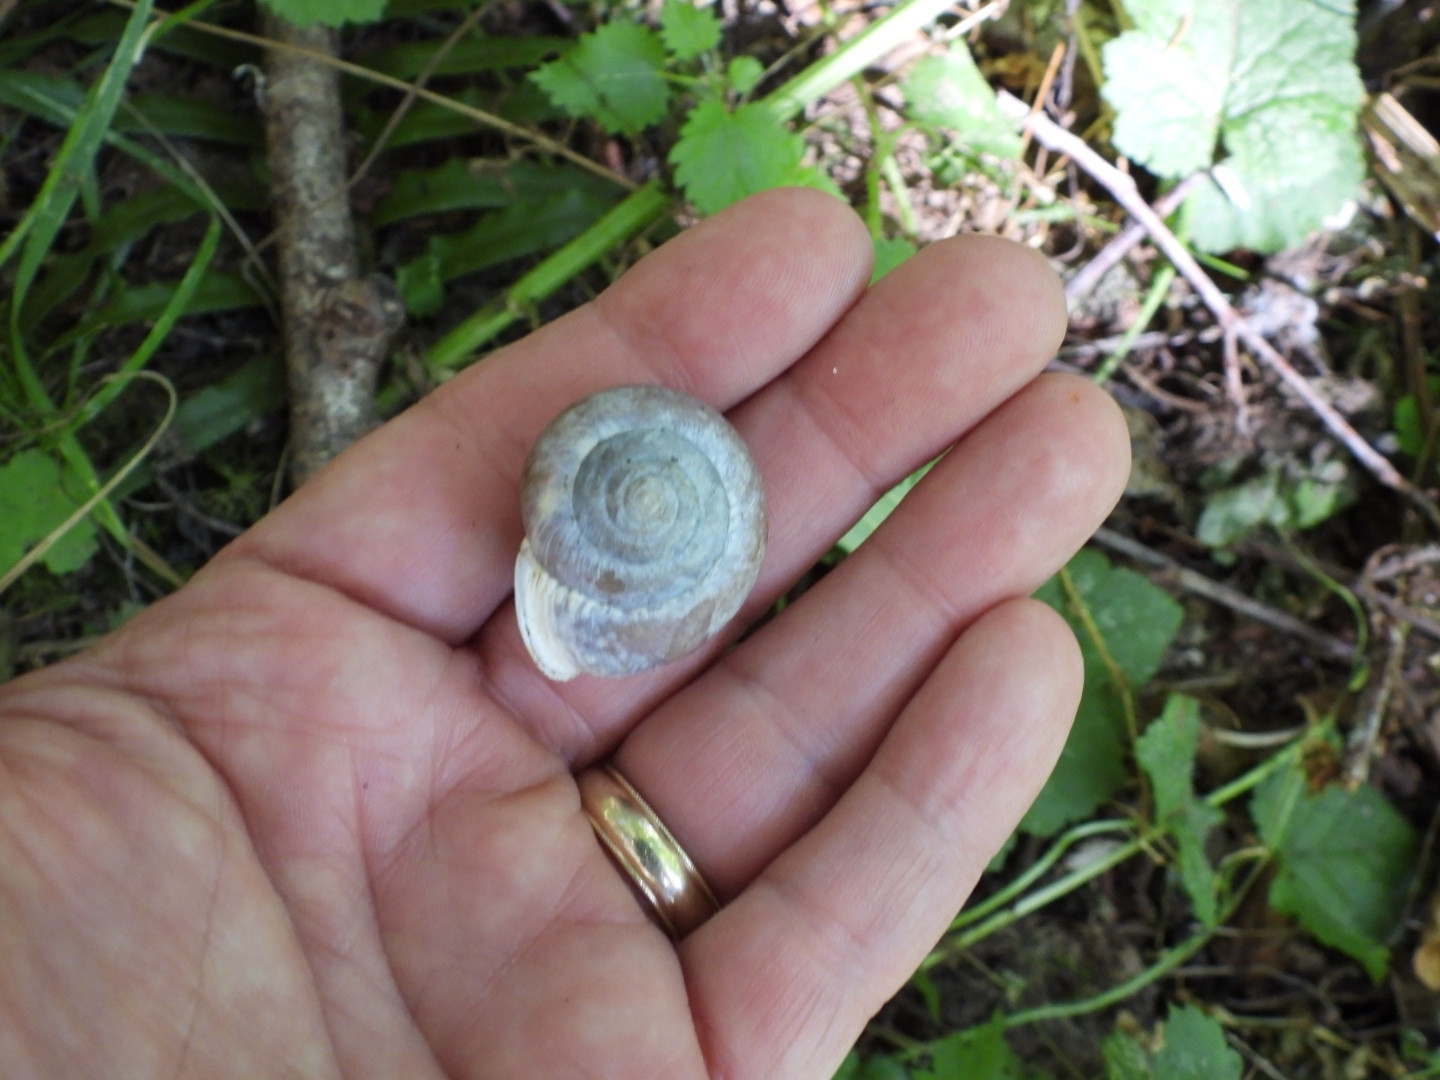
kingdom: Animalia
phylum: Mollusca
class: Gastropoda
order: Stylommatophora
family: Polygyridae
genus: Allogona
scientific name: Allogona townsendiana
